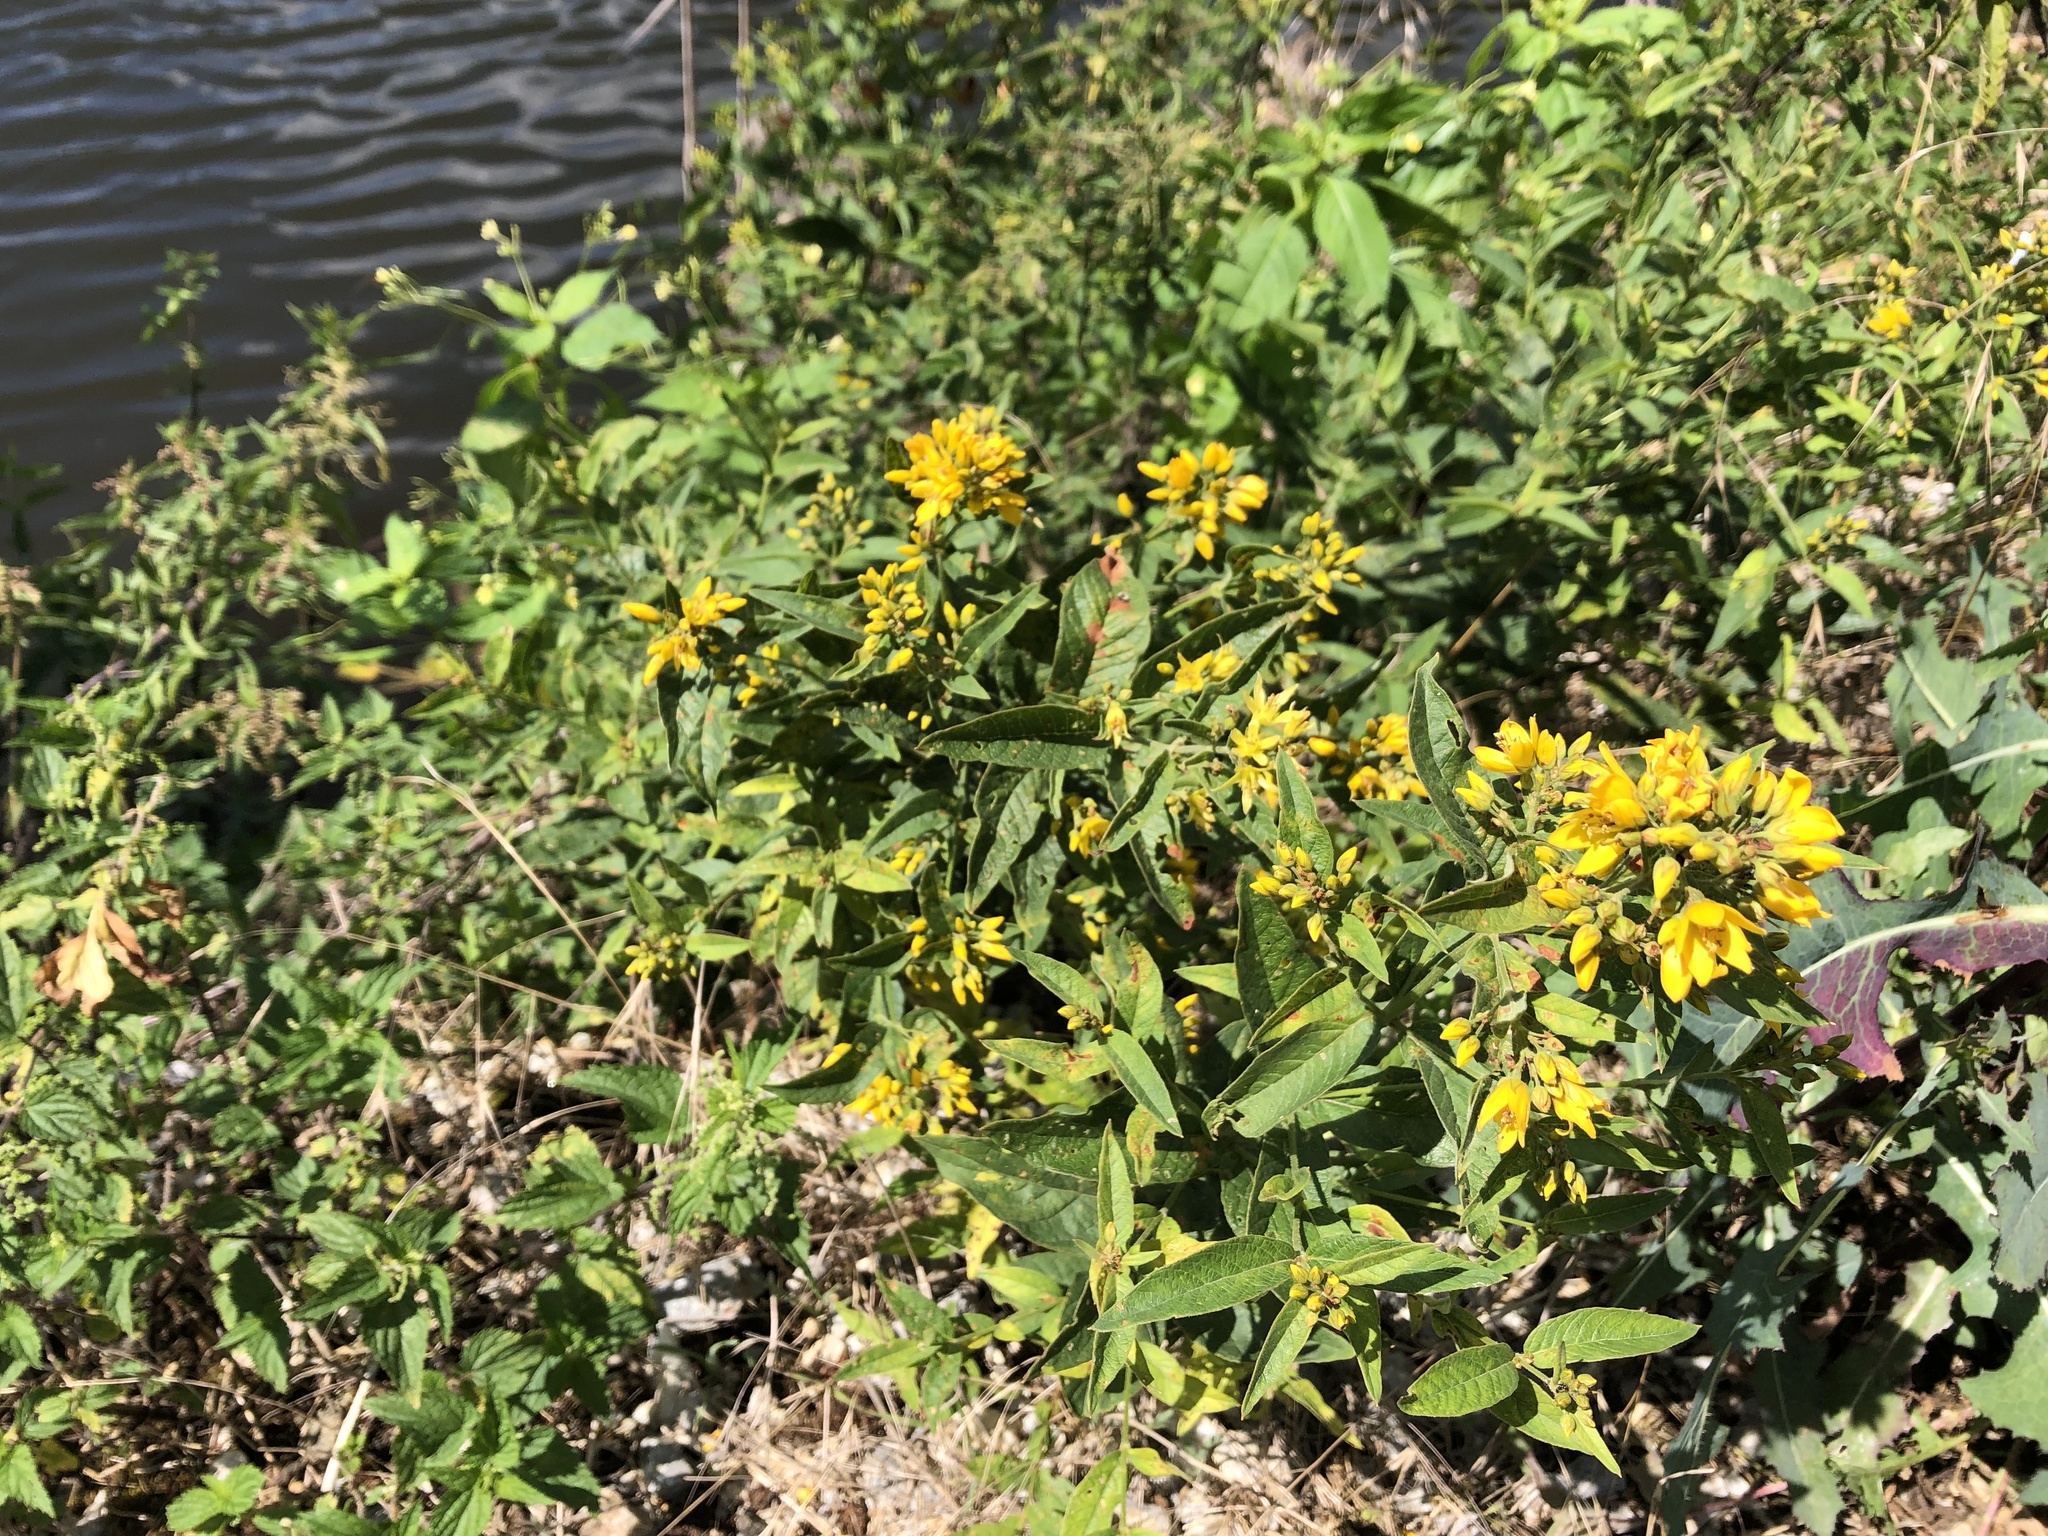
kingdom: Plantae
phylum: Tracheophyta
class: Magnoliopsida
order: Ericales
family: Primulaceae
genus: Lysimachia
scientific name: Lysimachia vulgaris
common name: Yellow loosestrife
